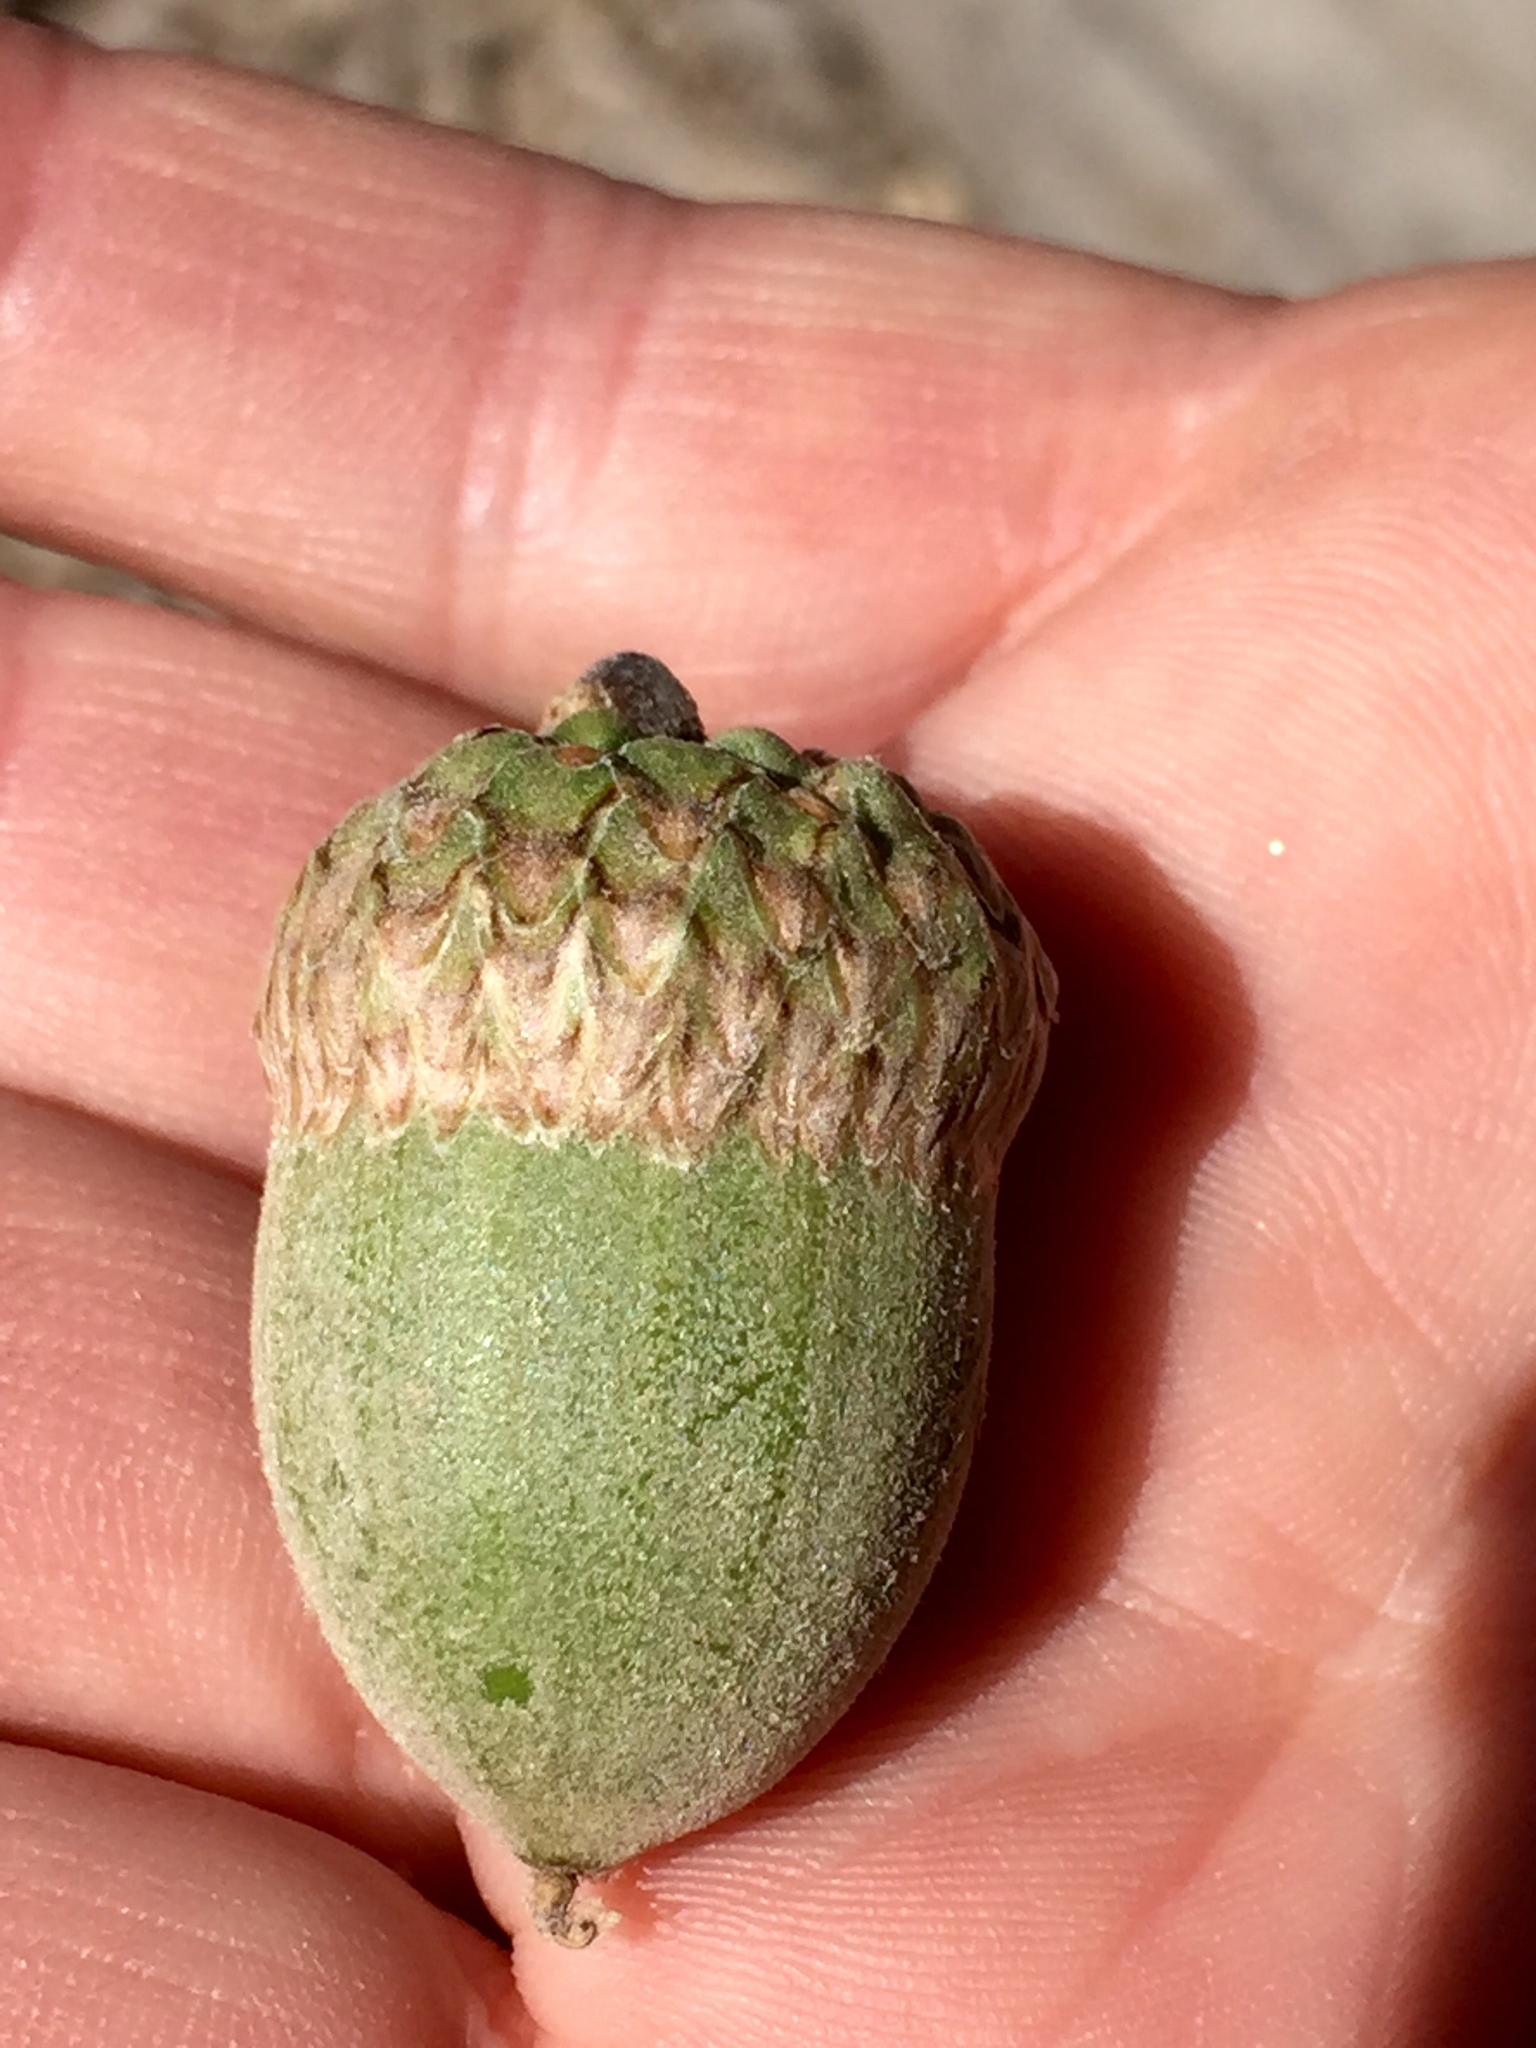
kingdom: Plantae
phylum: Tracheophyta
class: Magnoliopsida
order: Fagales
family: Fagaceae
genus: Quercus
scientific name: Quercus kelloggii
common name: California black oak
